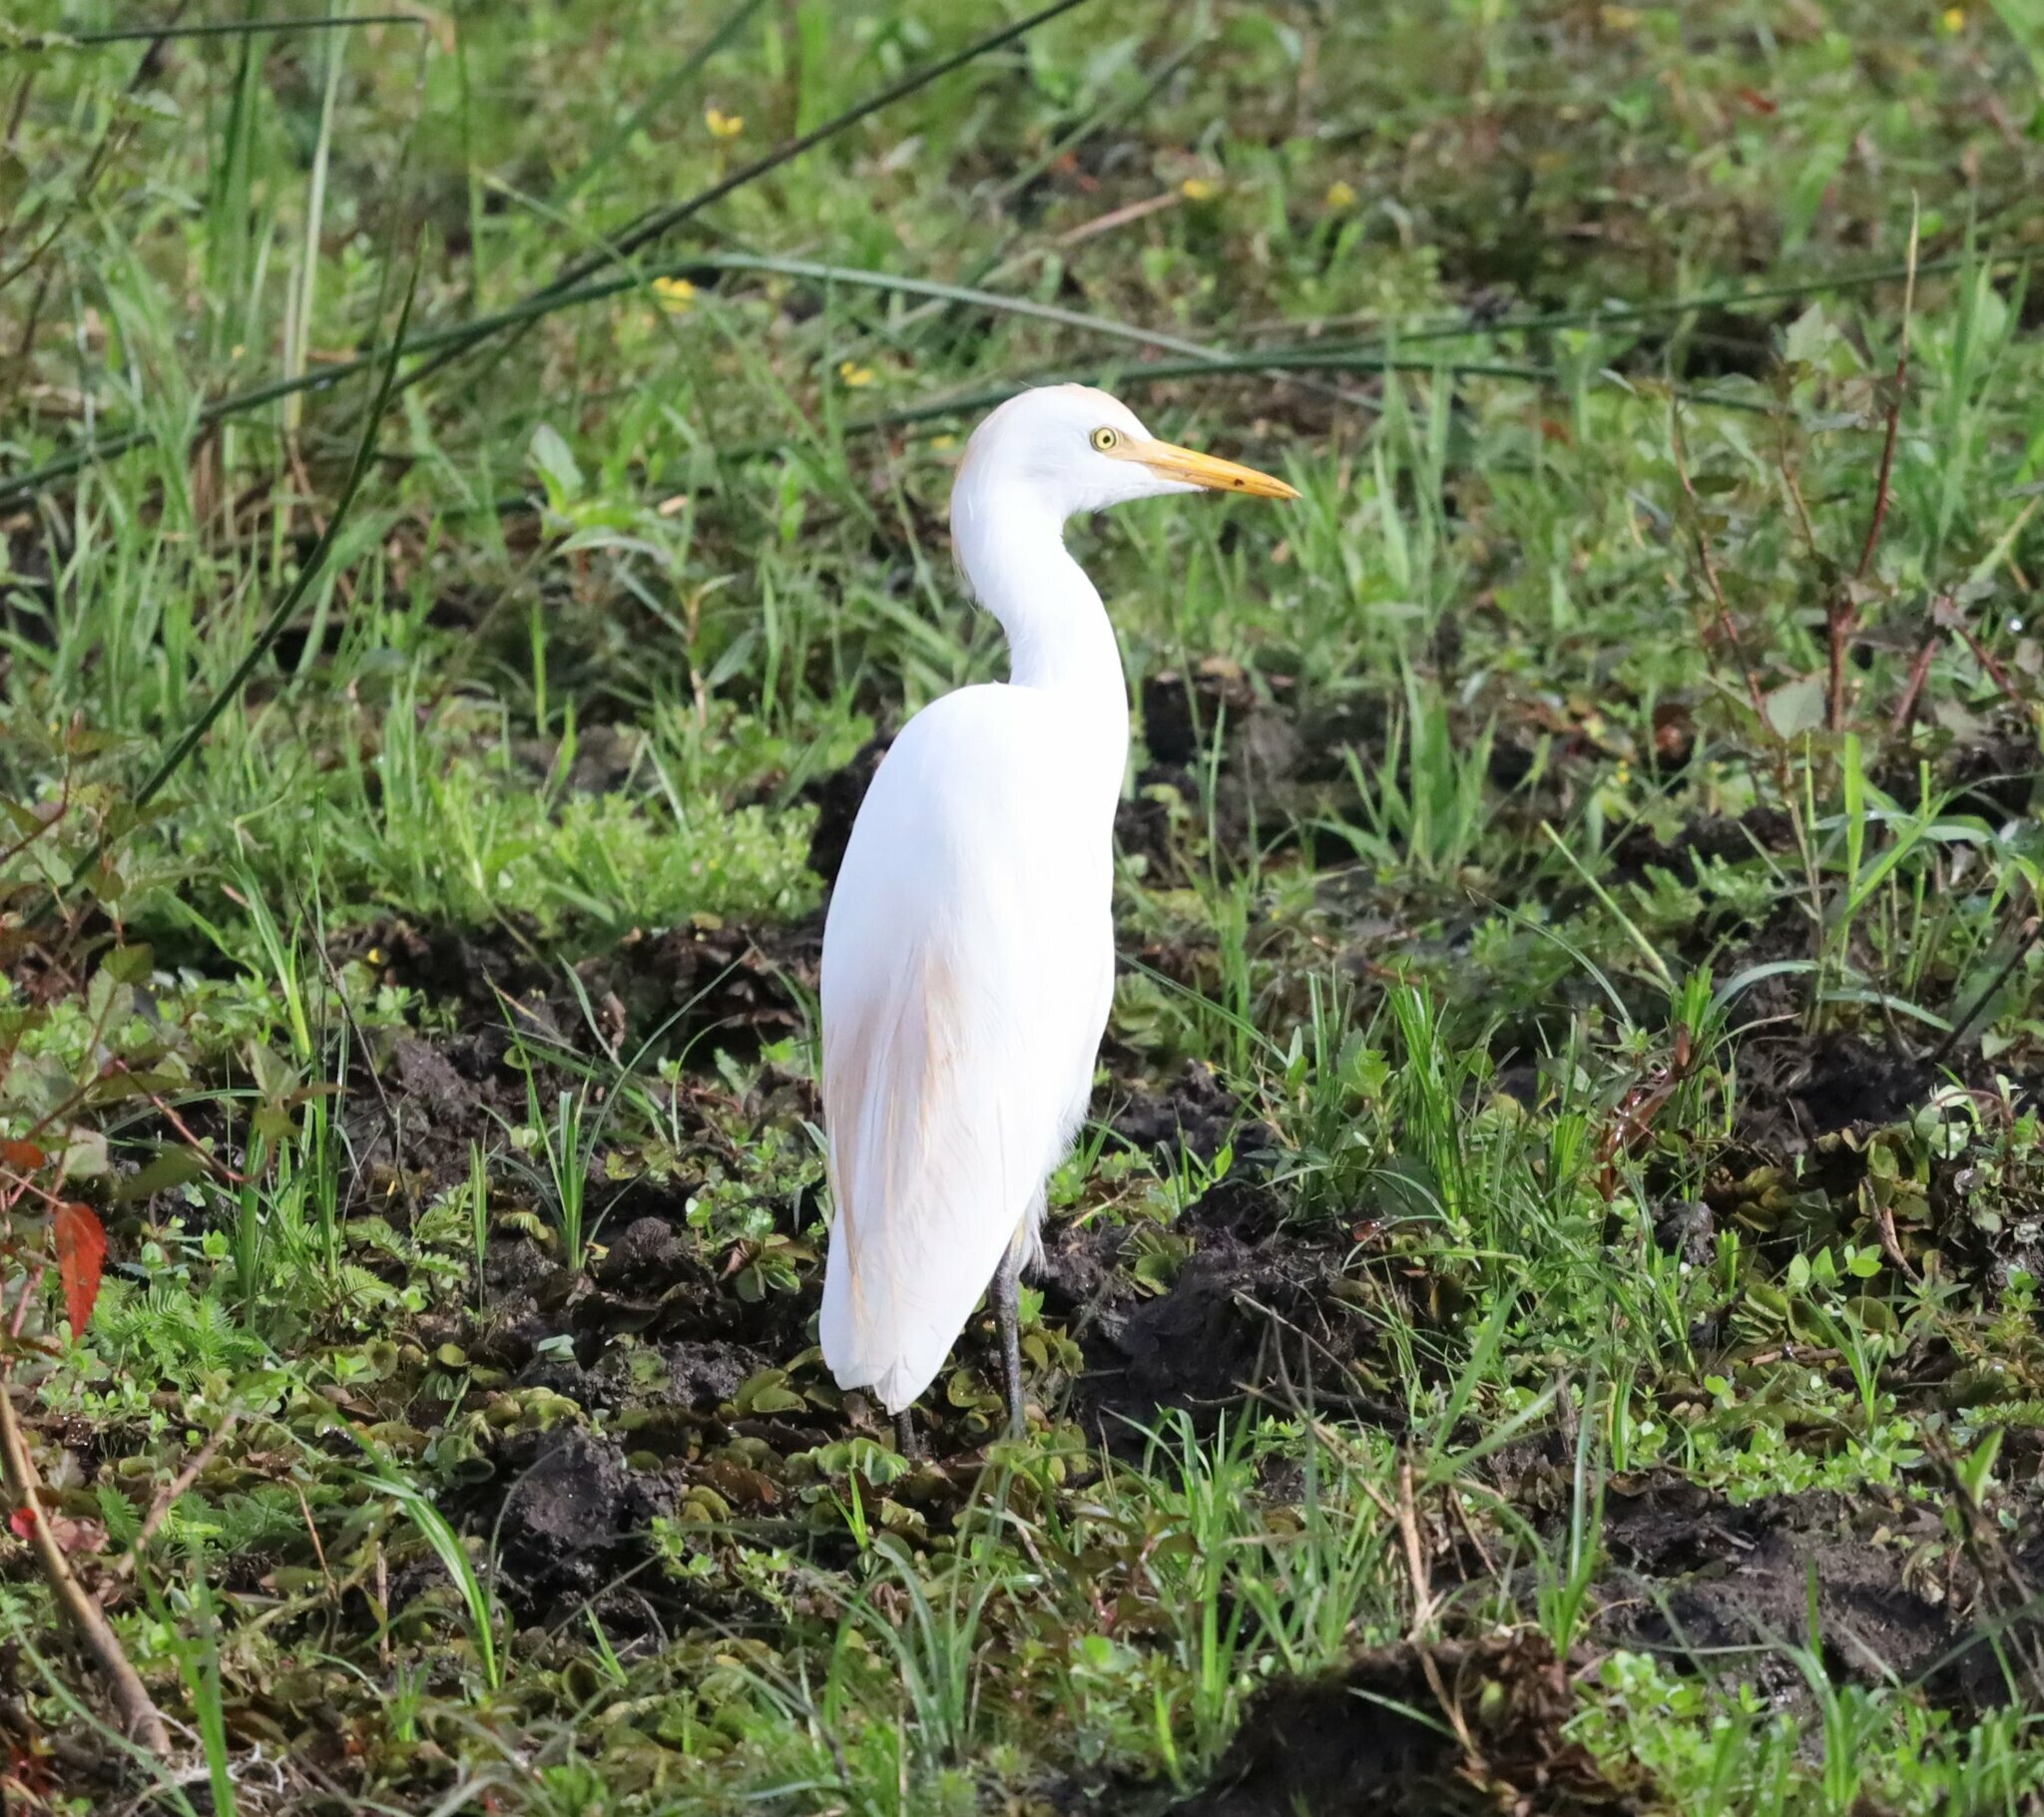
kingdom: Animalia
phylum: Chordata
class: Aves
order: Pelecaniformes
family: Ardeidae
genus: Bubulcus
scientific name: Bubulcus ibis
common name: Cattle egret
